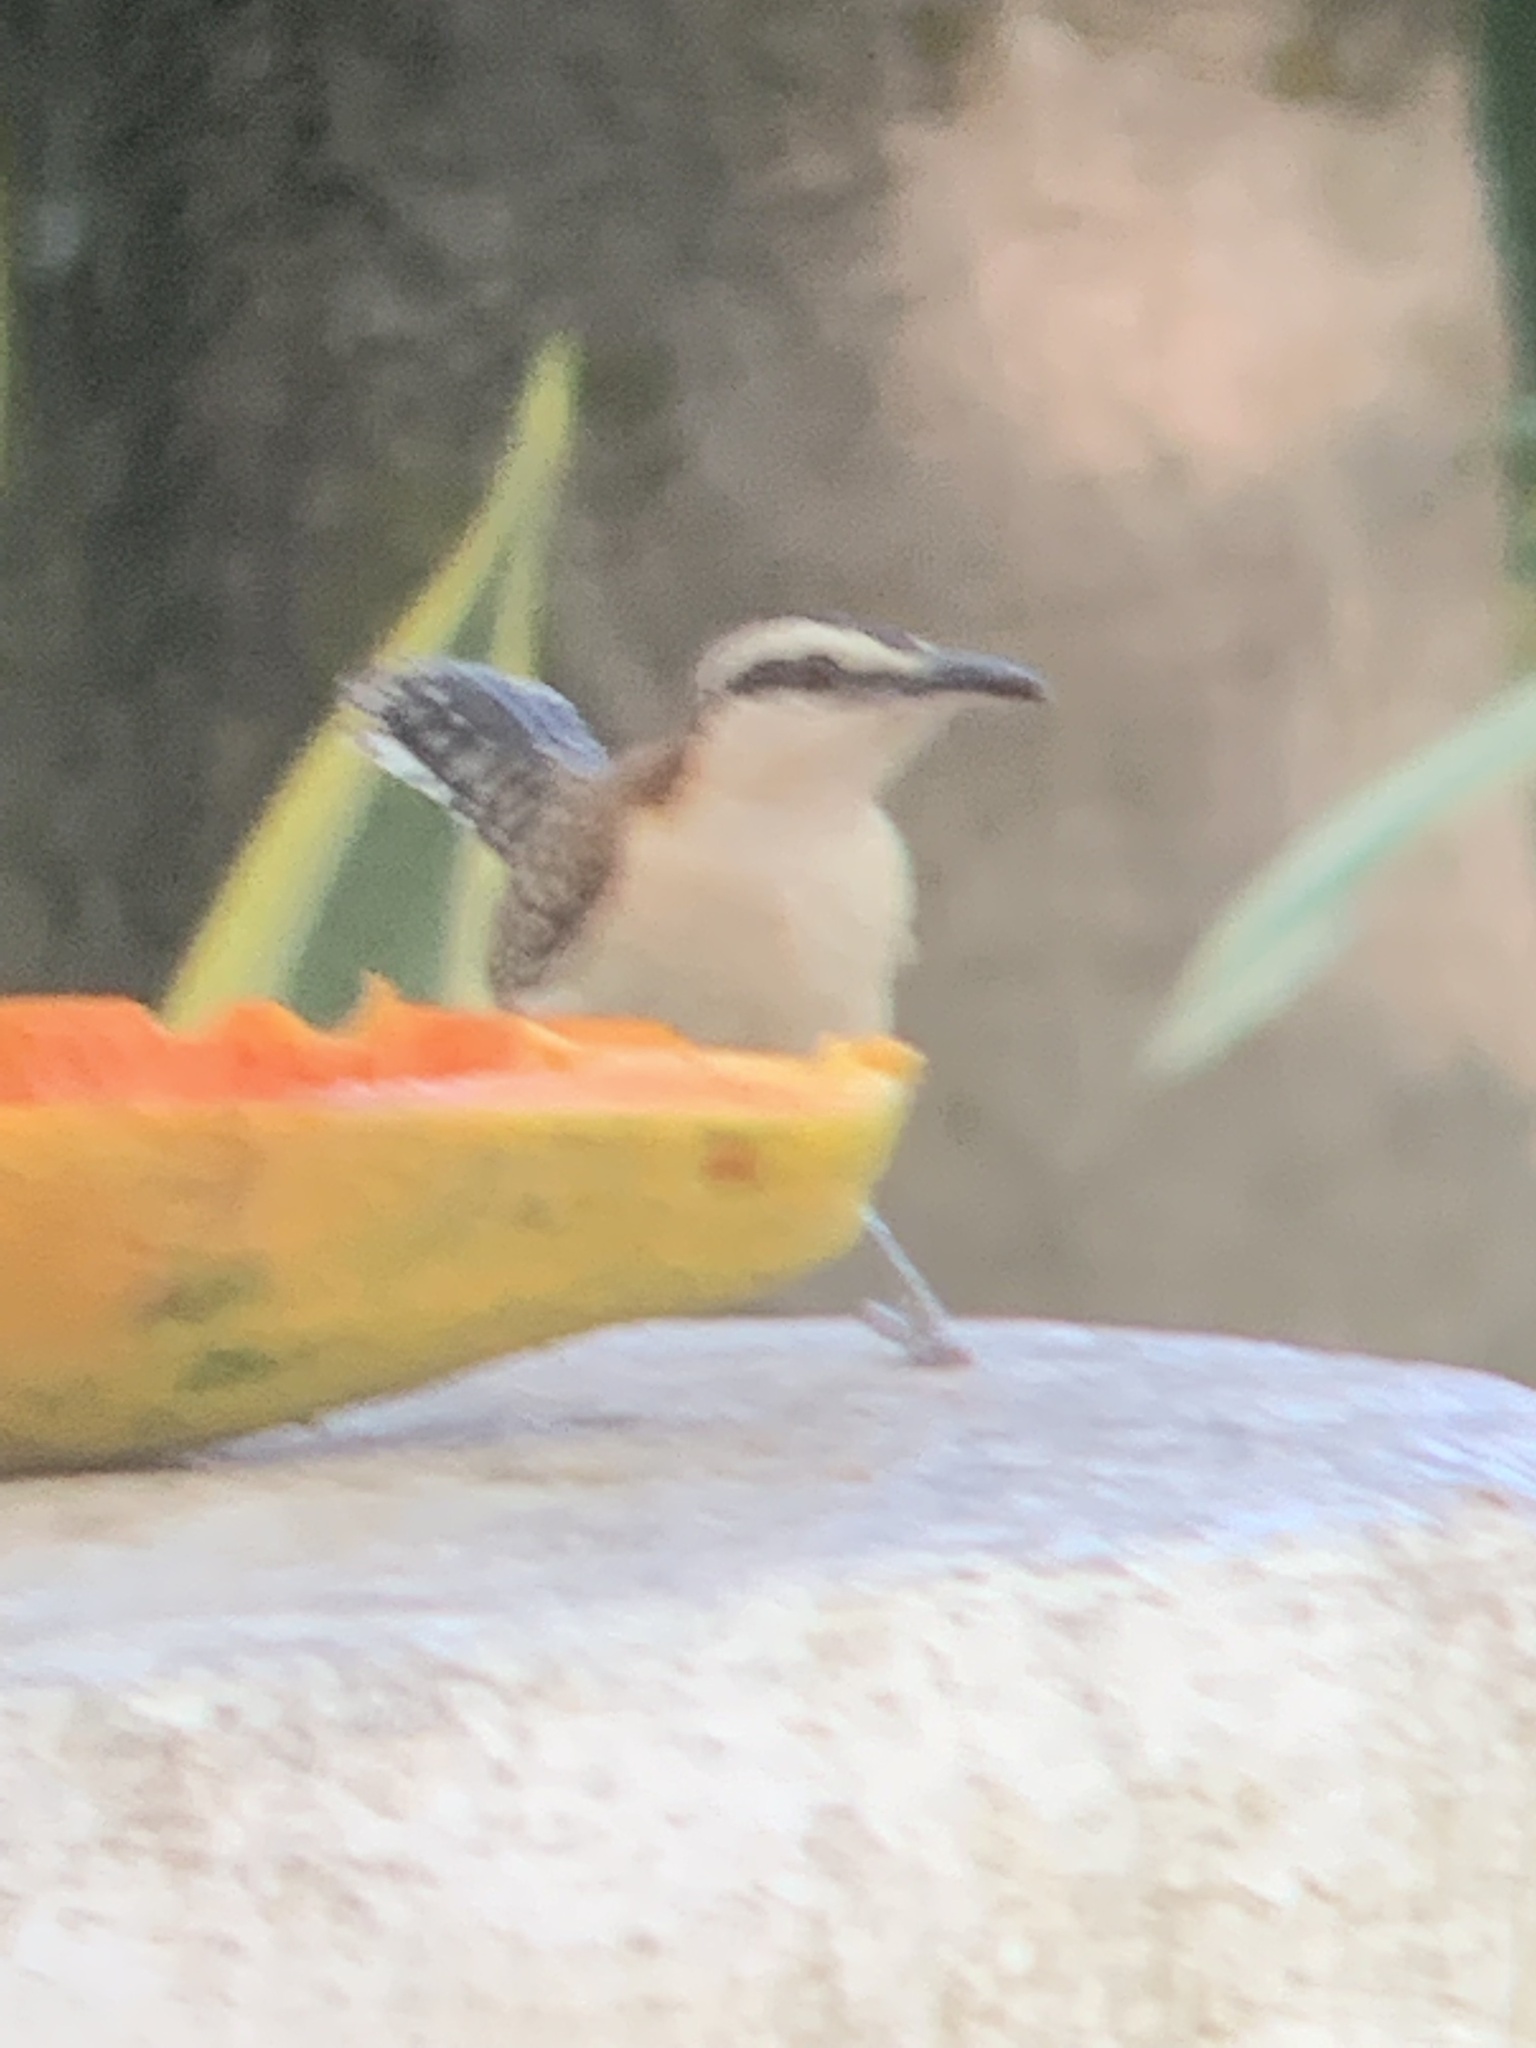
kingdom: Animalia
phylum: Chordata
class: Aves
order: Passeriformes
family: Troglodytidae
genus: Campylorhynchus
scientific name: Campylorhynchus rufinucha
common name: Rufous-naped wren
